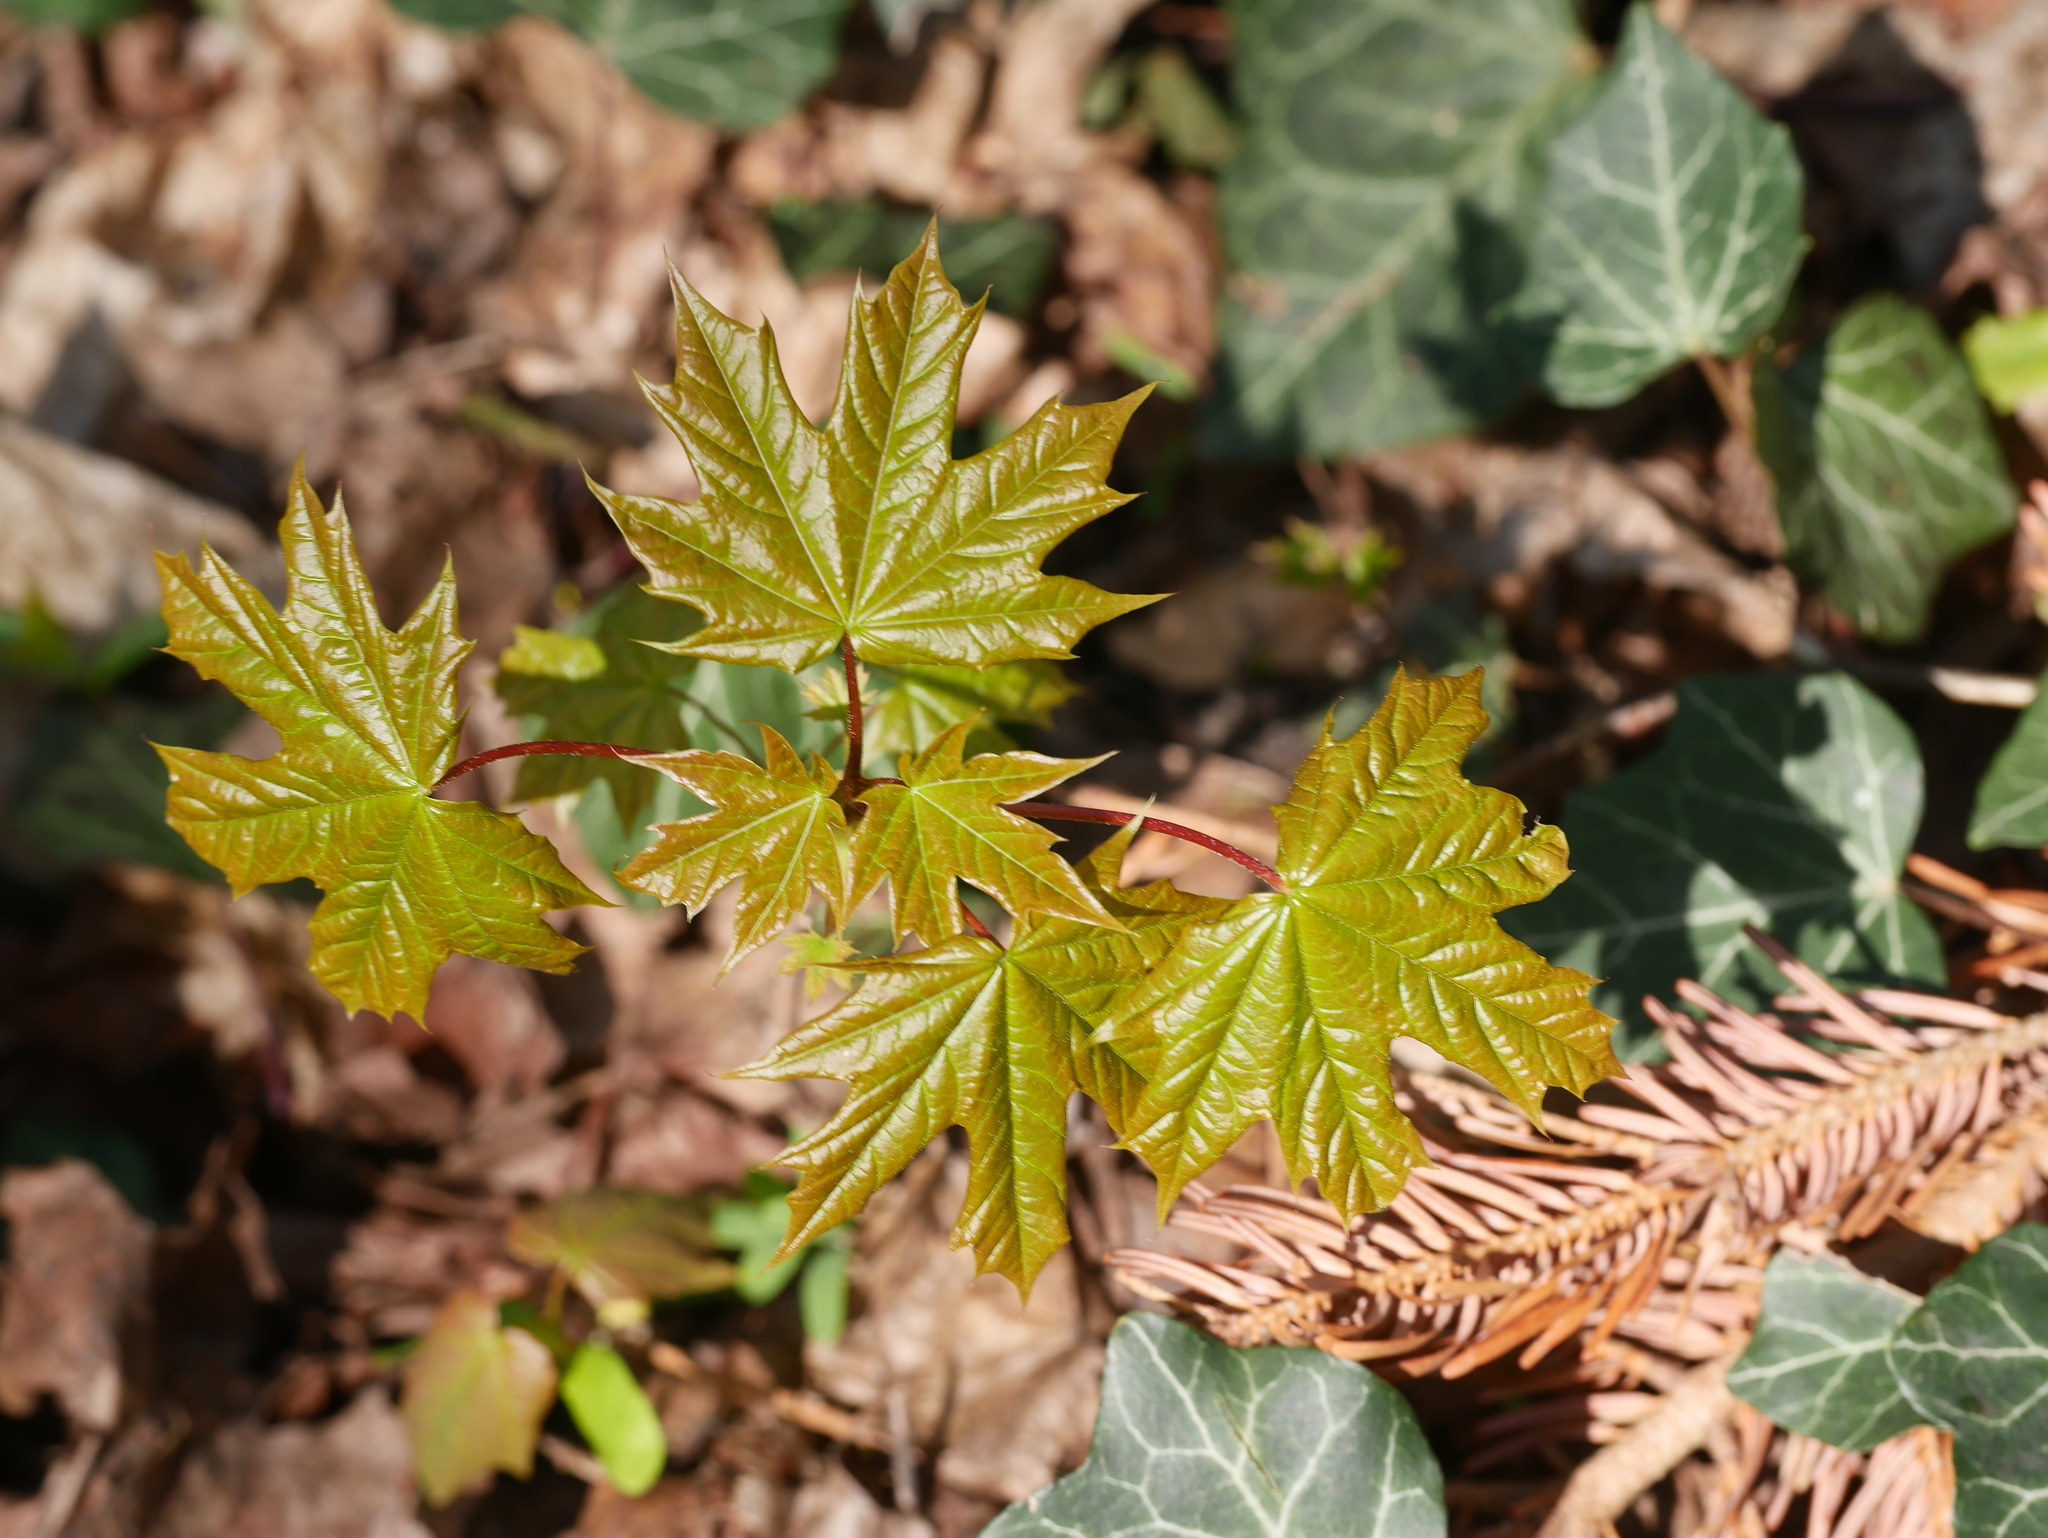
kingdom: Plantae
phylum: Tracheophyta
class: Magnoliopsida
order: Sapindales
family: Sapindaceae
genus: Acer
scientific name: Acer platanoides
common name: Norway maple
